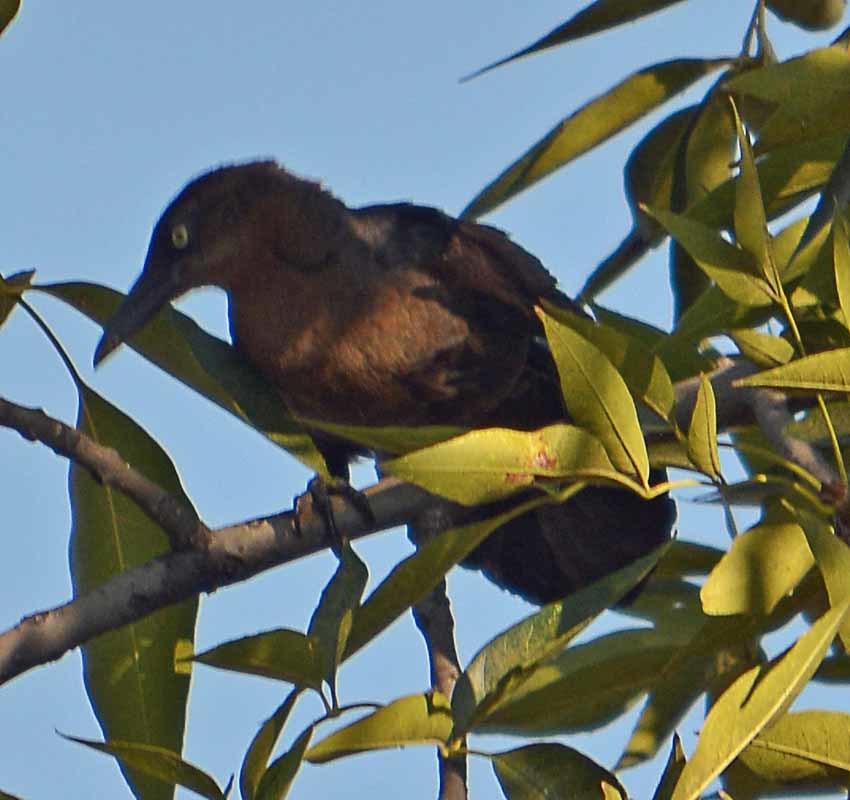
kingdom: Animalia
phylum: Chordata
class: Aves
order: Passeriformes
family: Icteridae
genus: Quiscalus
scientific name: Quiscalus mexicanus
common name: Great-tailed grackle
